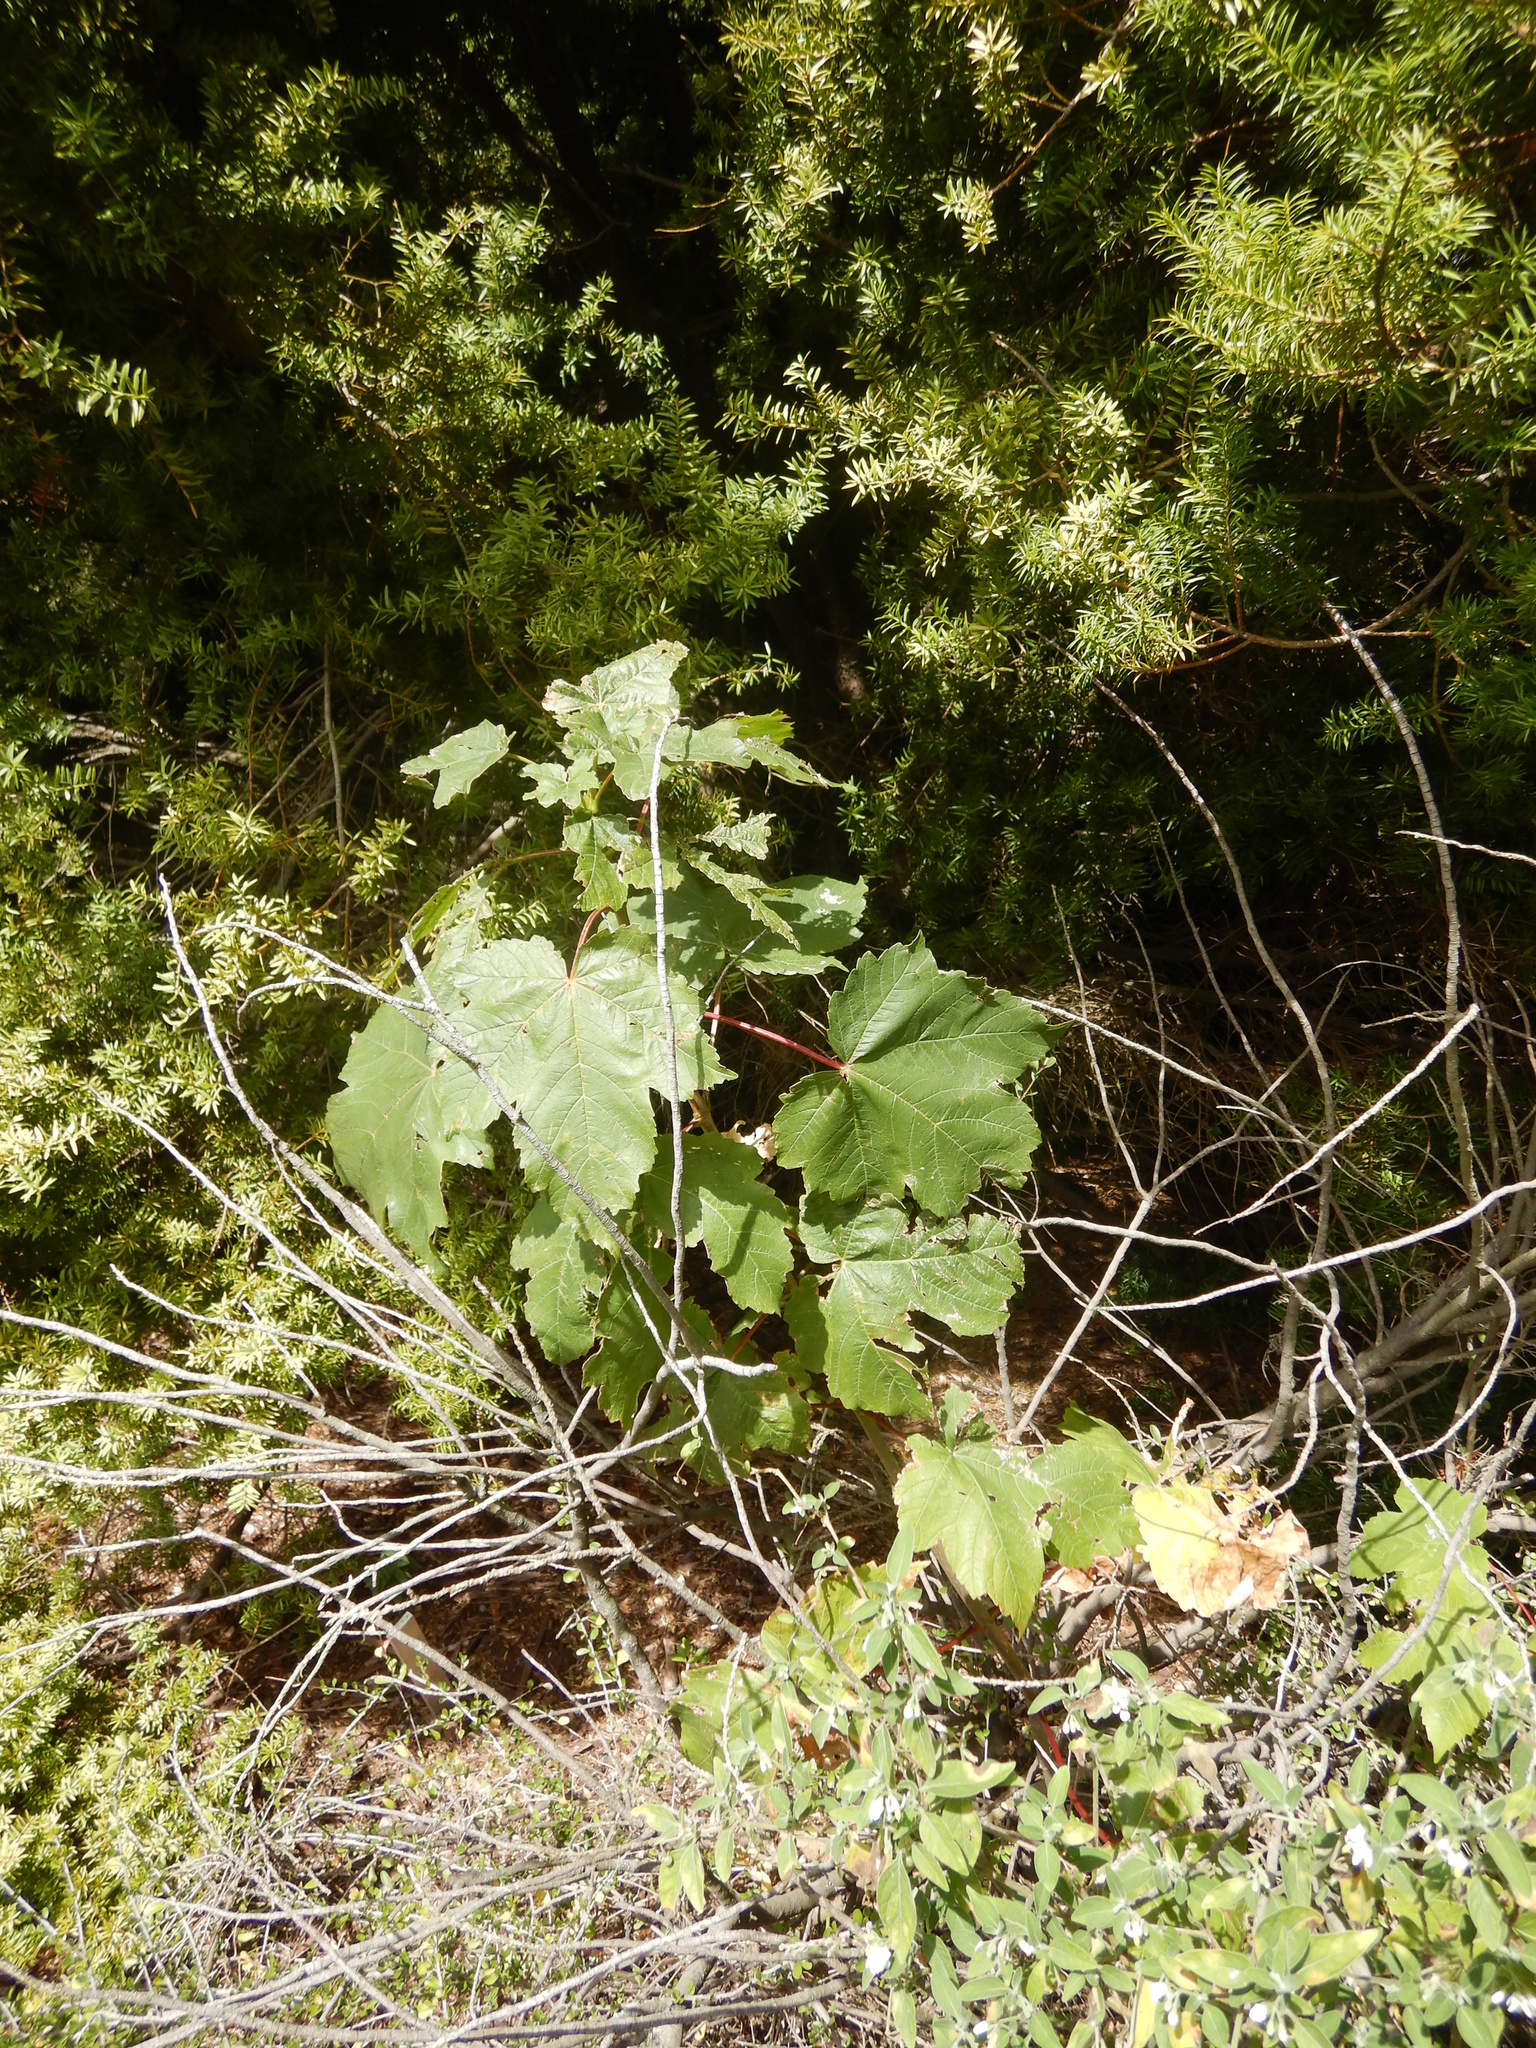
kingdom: Plantae
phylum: Tracheophyta
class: Magnoliopsida
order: Sapindales
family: Sapindaceae
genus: Acer
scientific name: Acer pseudoplatanus
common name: Sycamore
